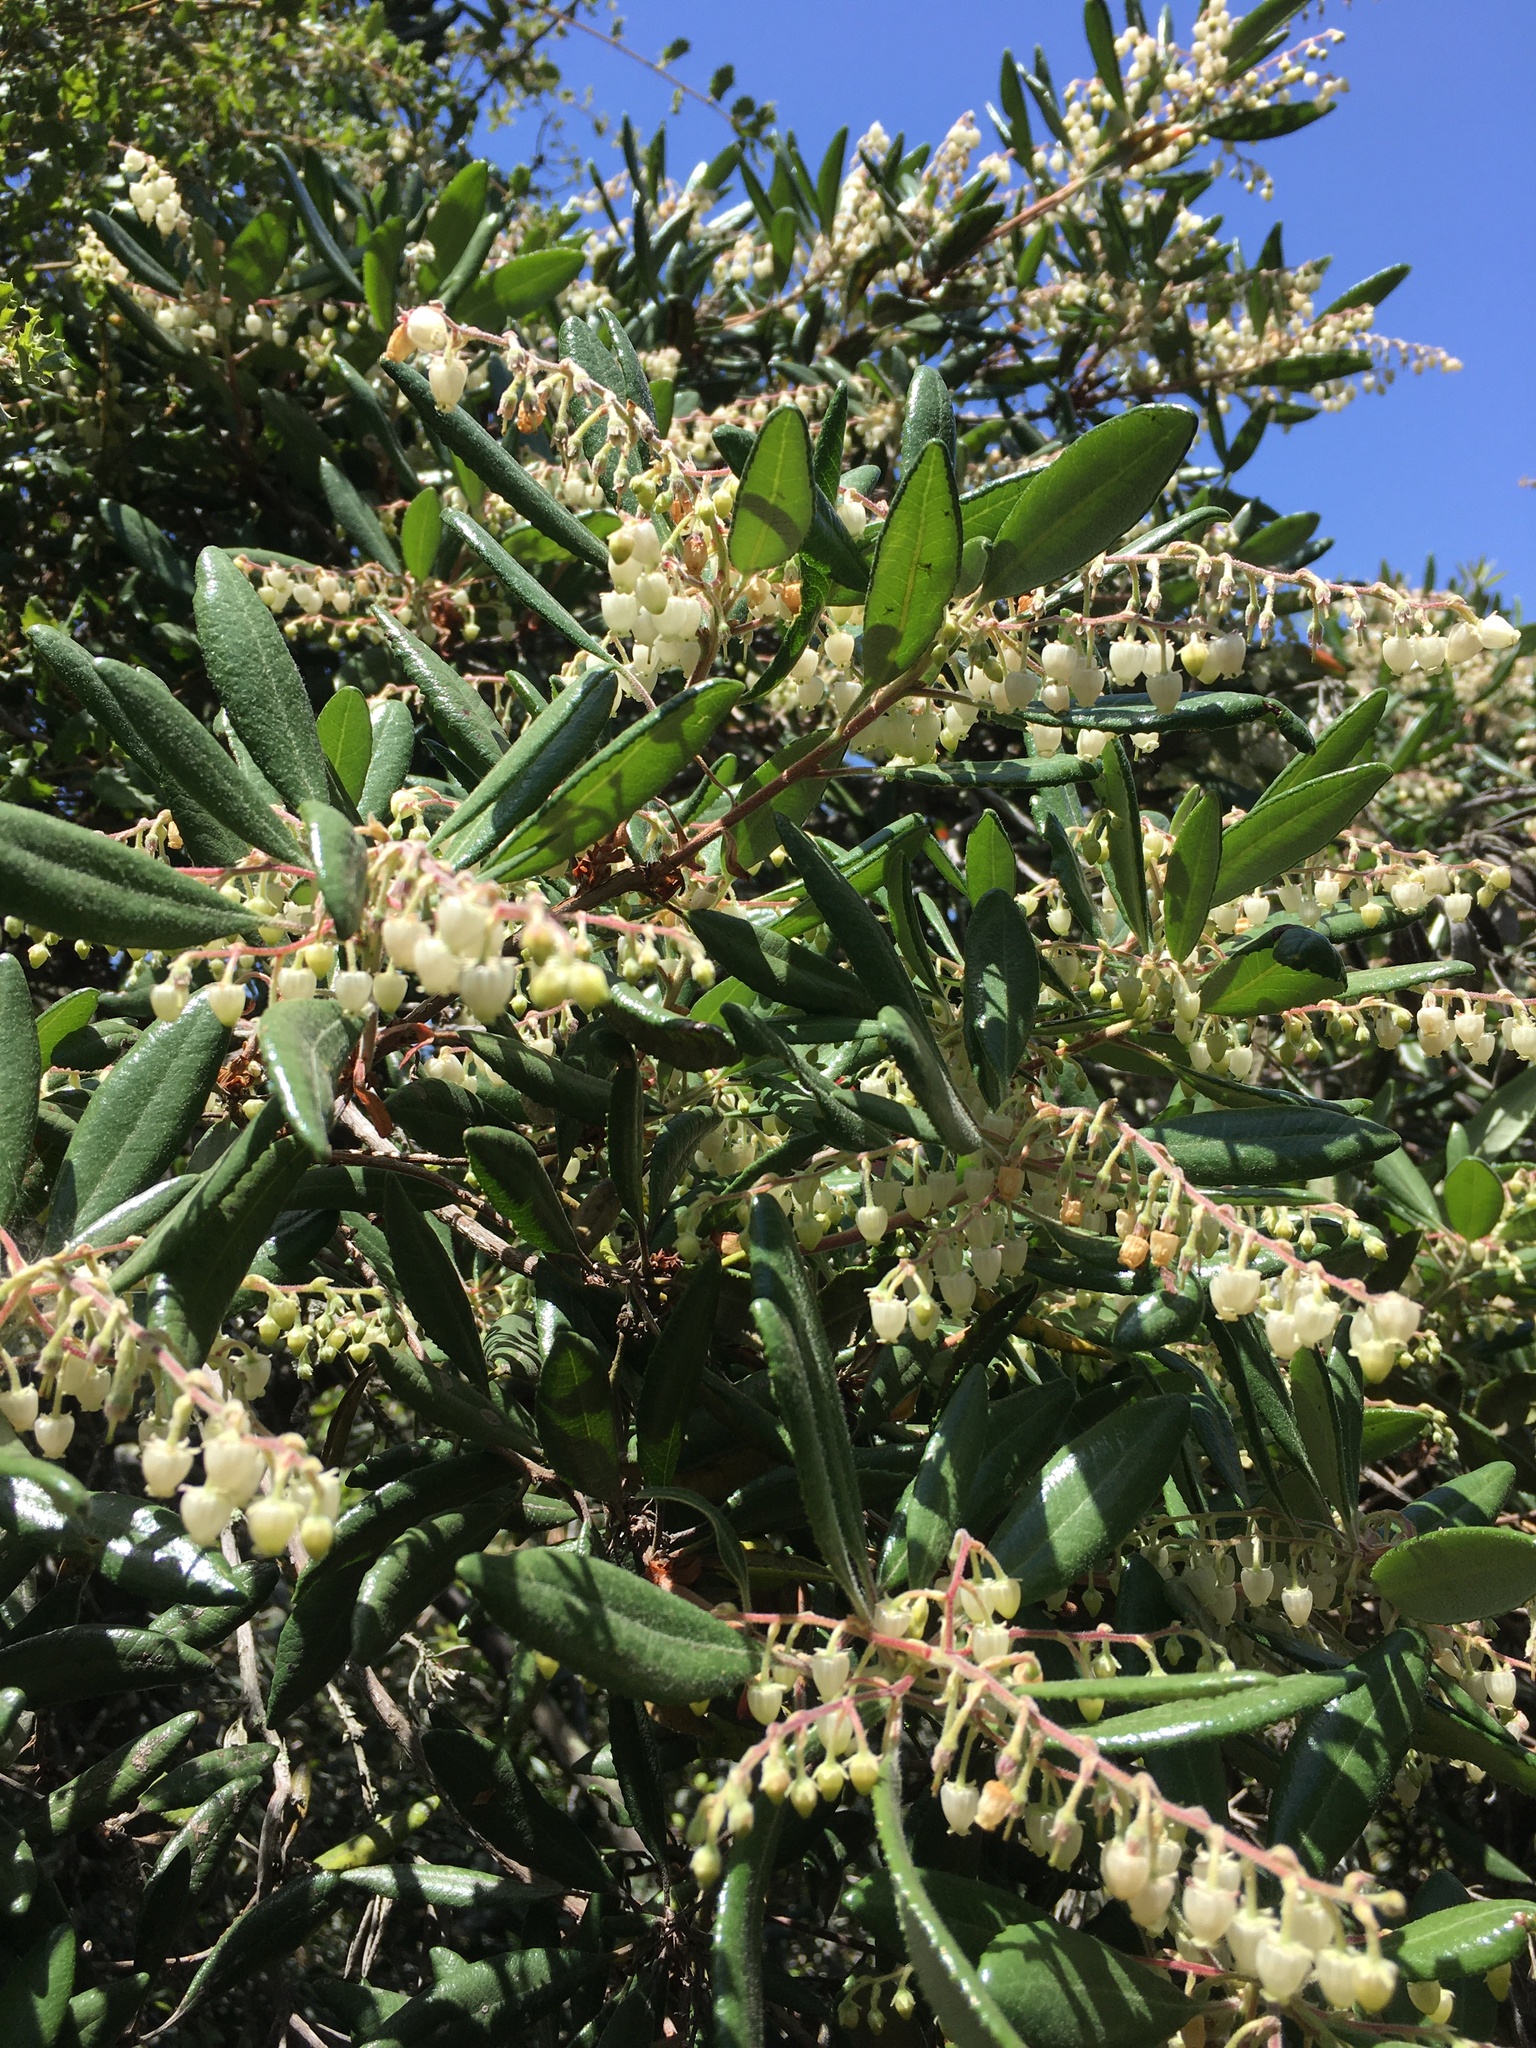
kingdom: Plantae
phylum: Tracheophyta
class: Magnoliopsida
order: Ericales
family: Ericaceae
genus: Comarostaphylis
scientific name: Comarostaphylis diversifolia
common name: Summer-holly
